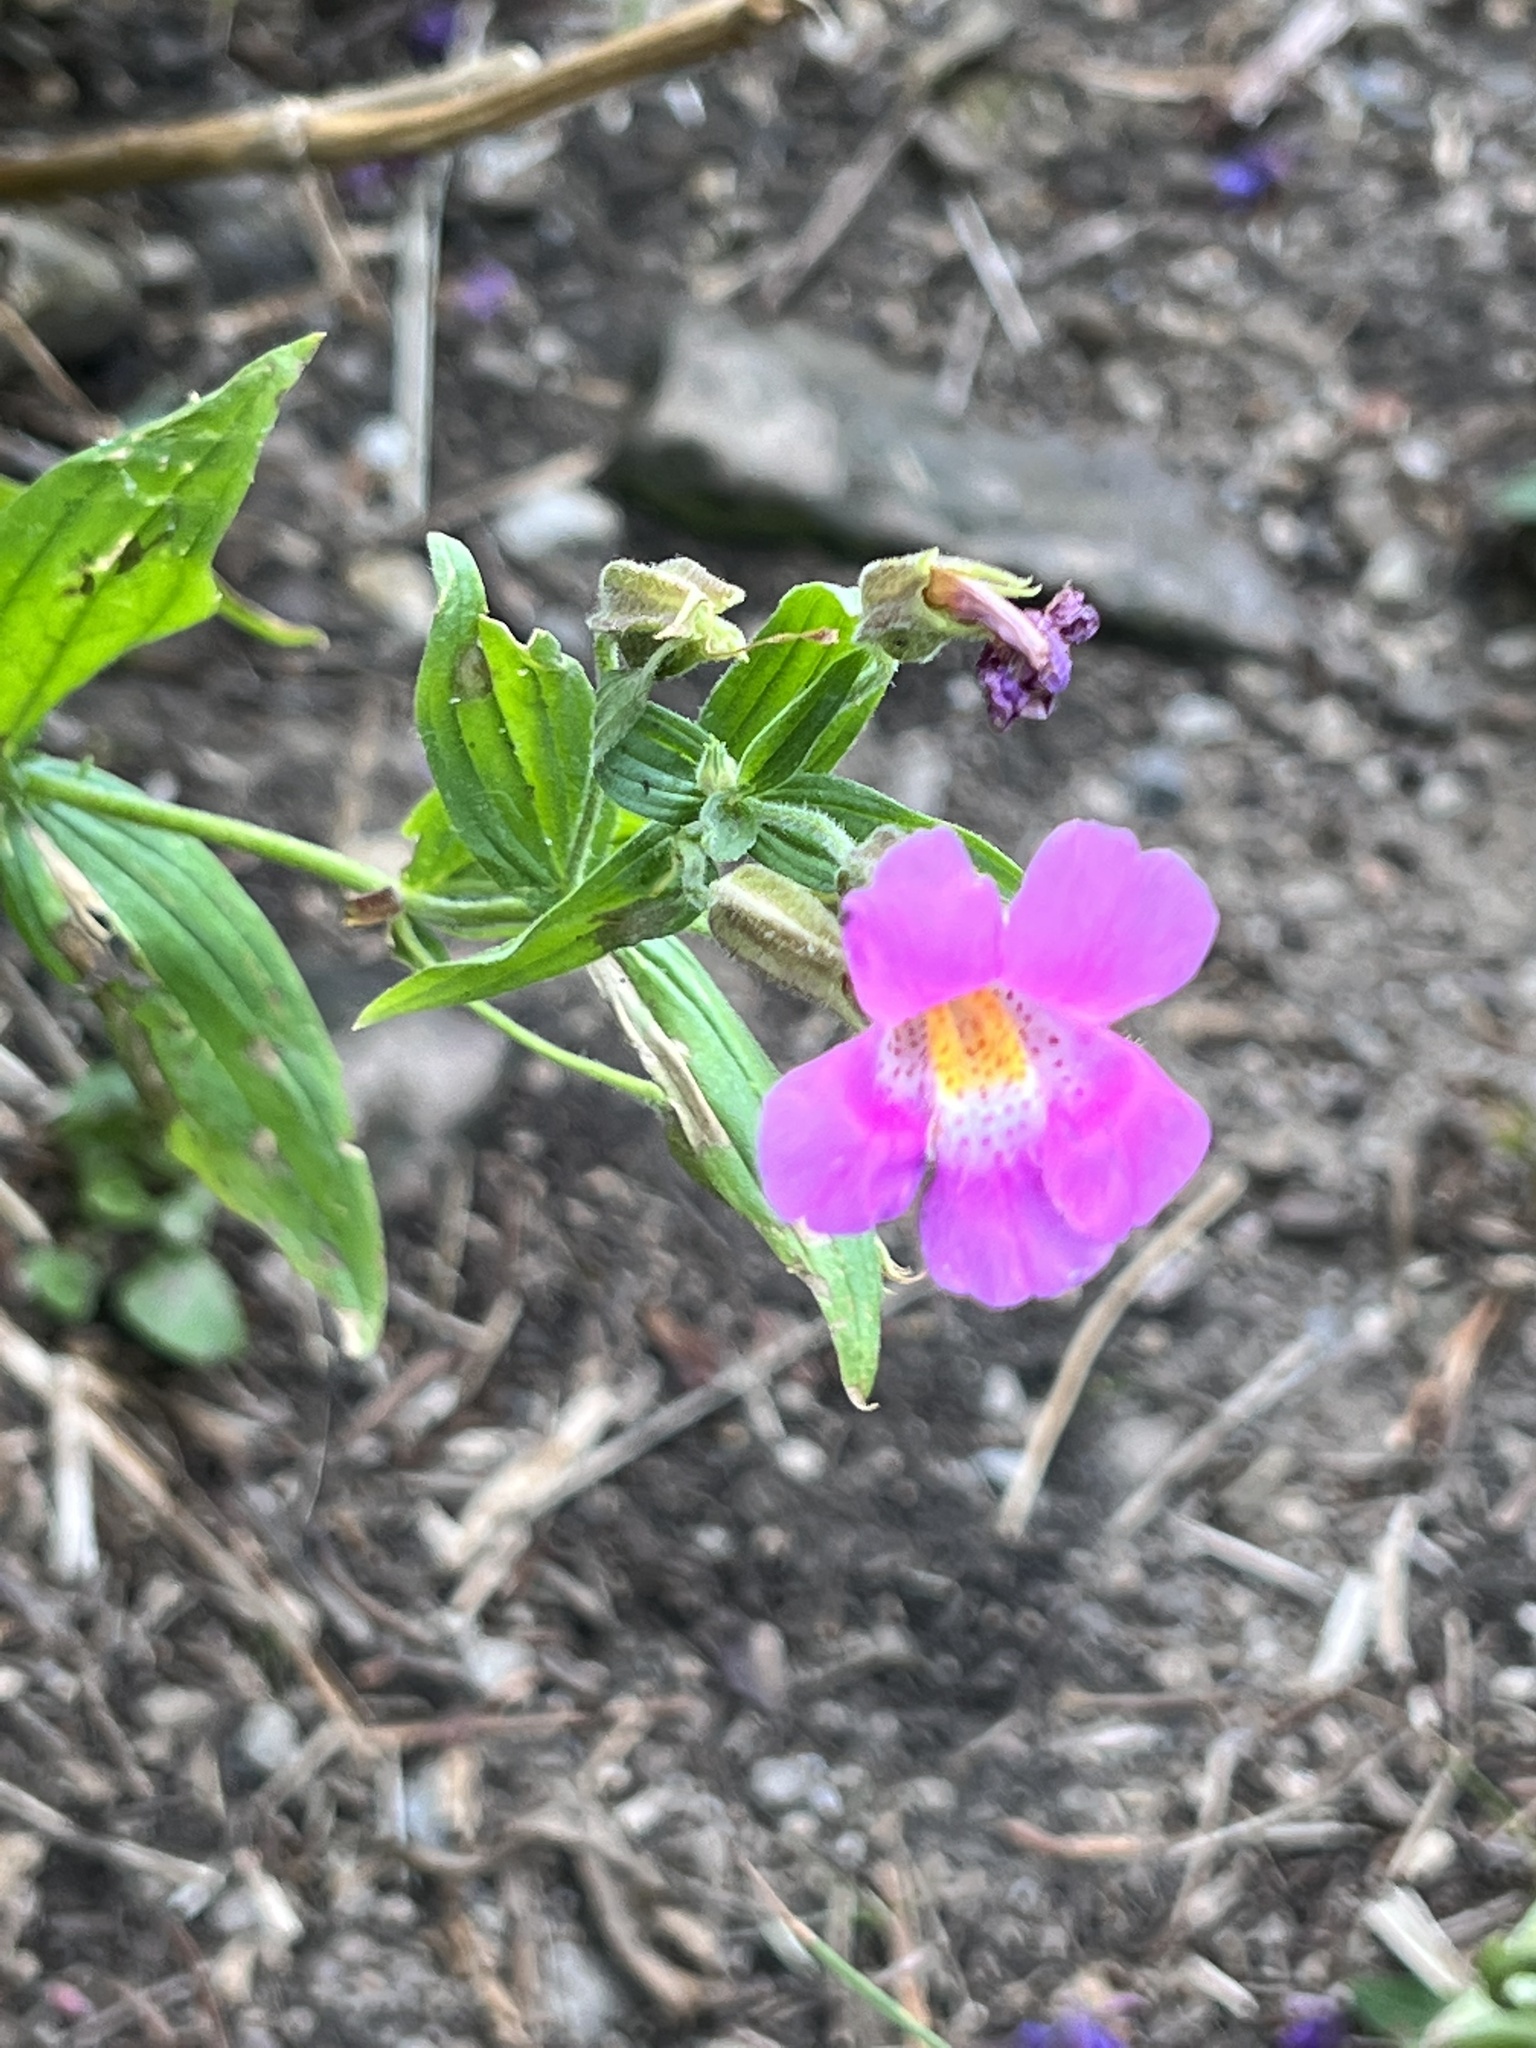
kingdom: Plantae
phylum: Tracheophyta
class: Magnoliopsida
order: Lamiales
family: Phrymaceae
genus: Erythranthe
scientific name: Erythranthe lewisii
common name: Lewis's monkey-flower
